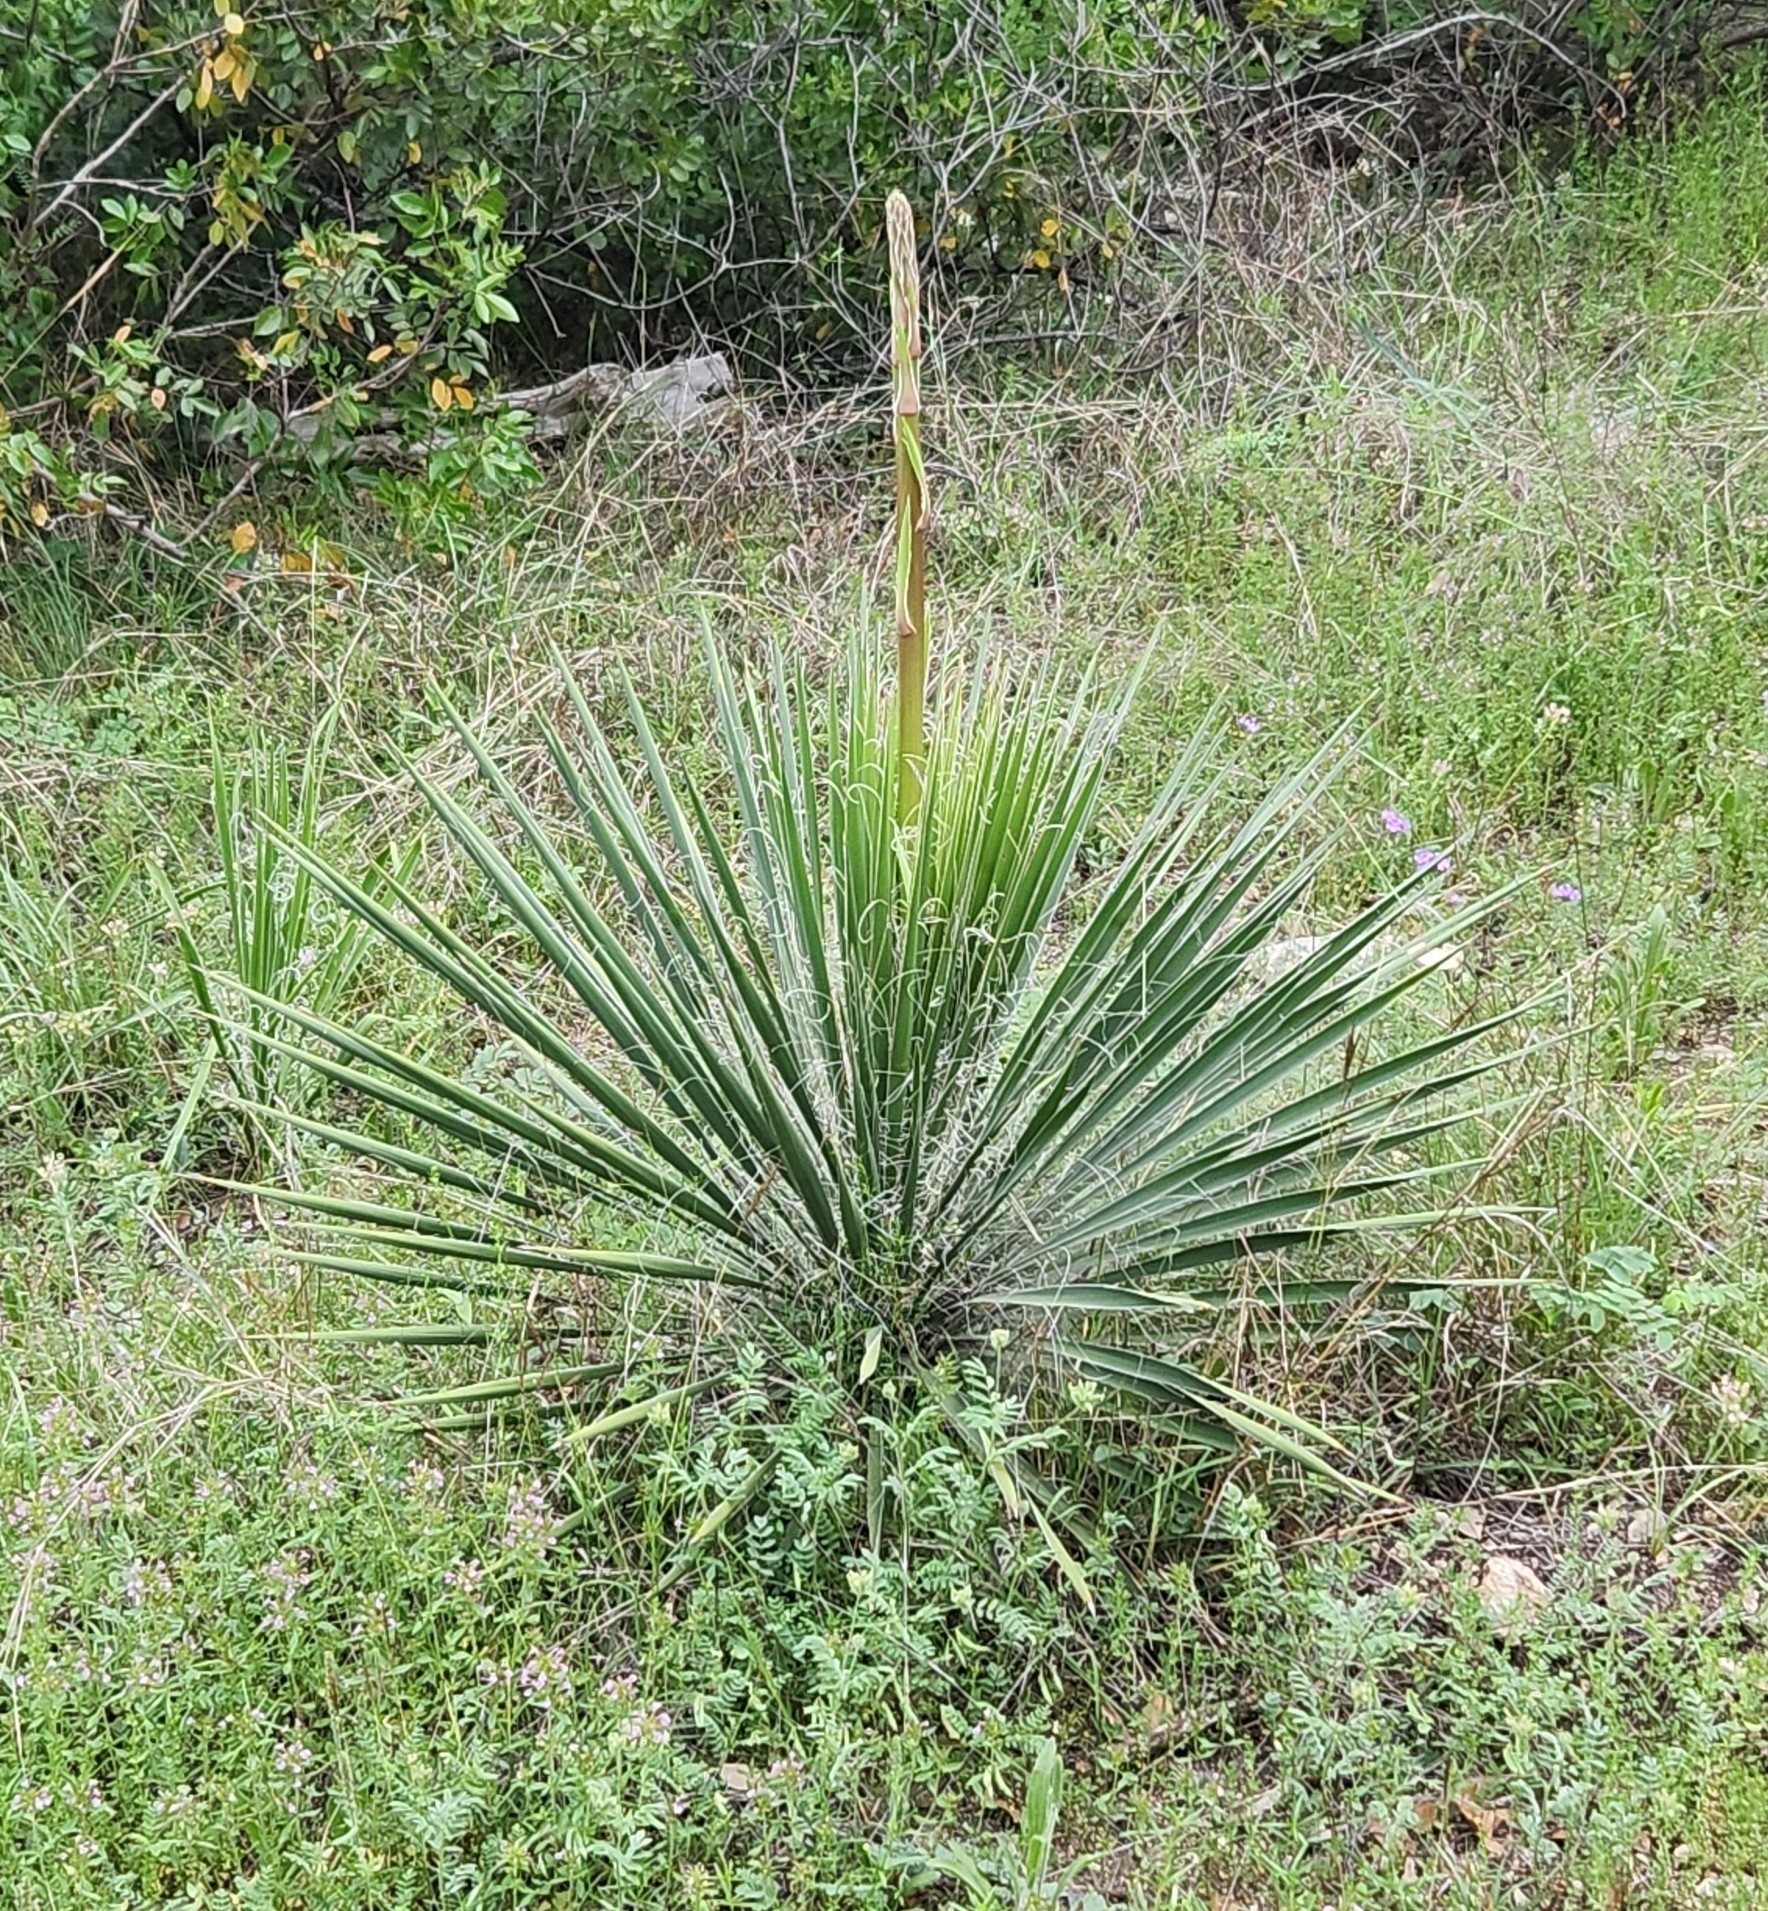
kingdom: Plantae
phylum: Tracheophyta
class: Liliopsida
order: Asparagales
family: Asparagaceae
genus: Yucca
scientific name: Yucca constricta
